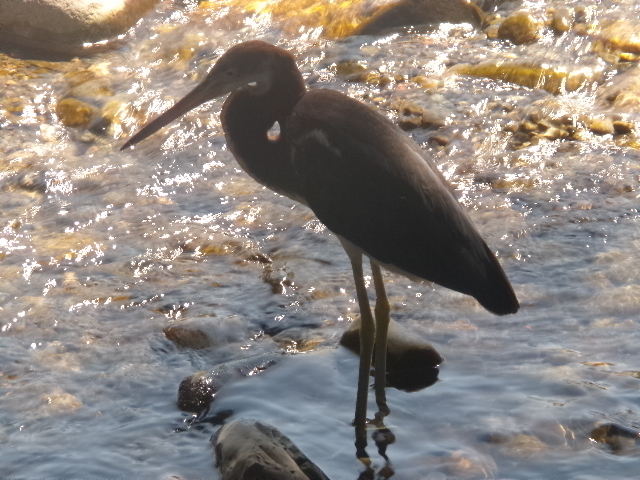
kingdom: Animalia
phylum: Chordata
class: Aves
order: Pelecaniformes
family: Ardeidae
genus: Egretta
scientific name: Egretta tricolor
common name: Tricolored heron
